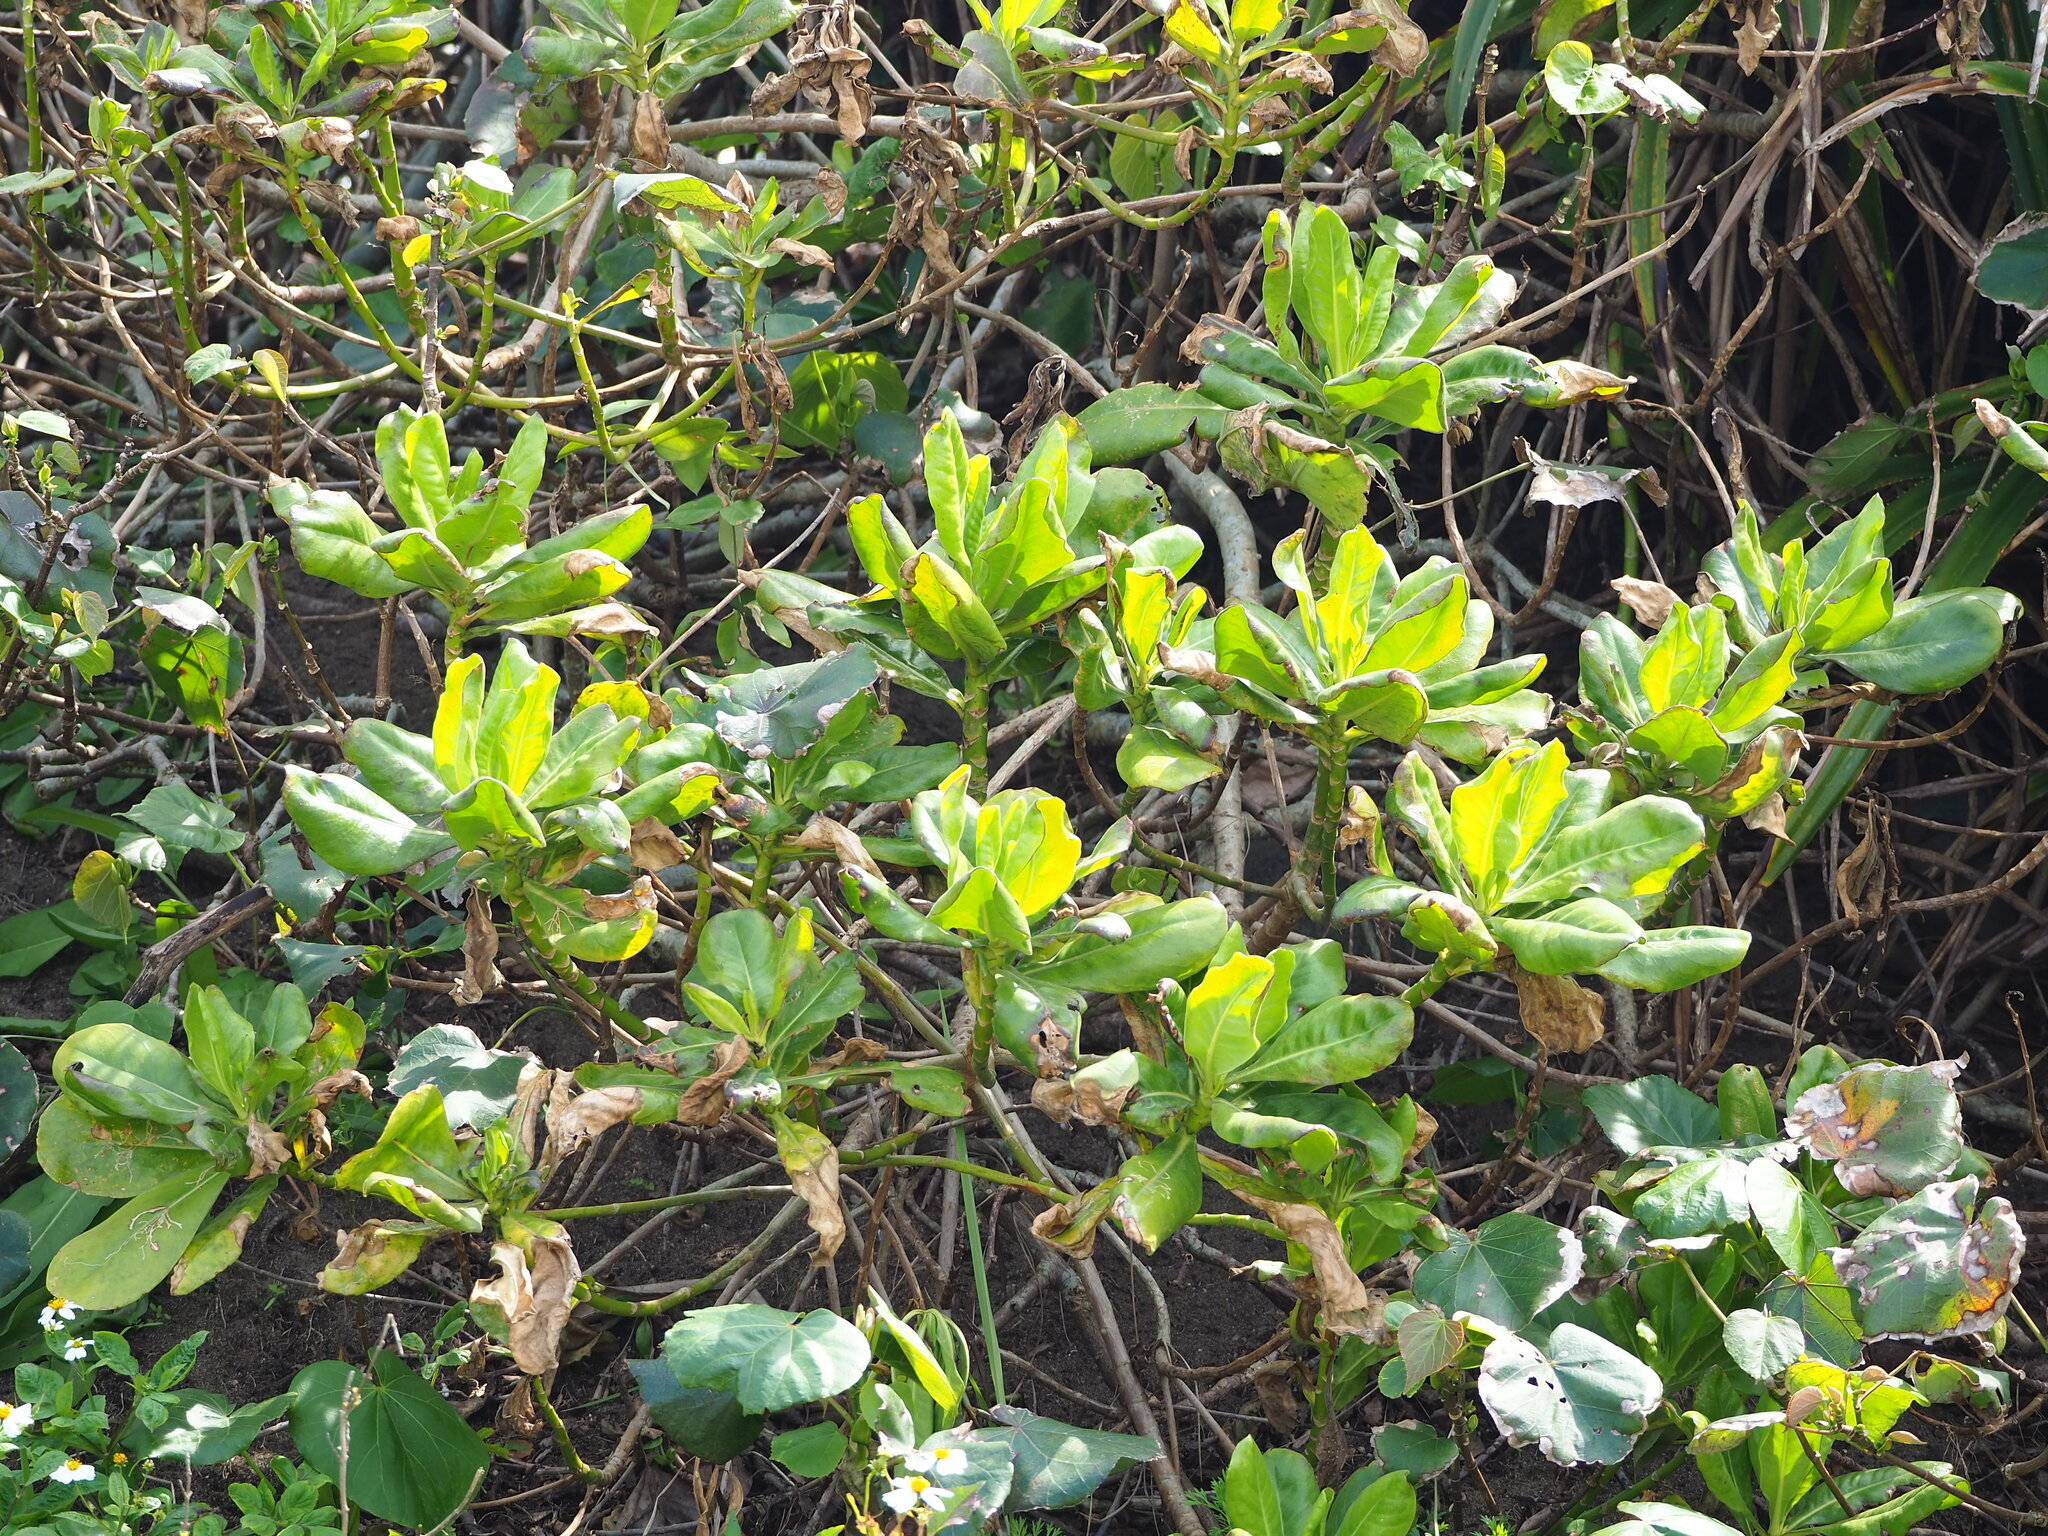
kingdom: Plantae
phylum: Tracheophyta
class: Magnoliopsida
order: Asterales
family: Goodeniaceae
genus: Scaevola
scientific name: Scaevola taccada
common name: Sea lettucetree
